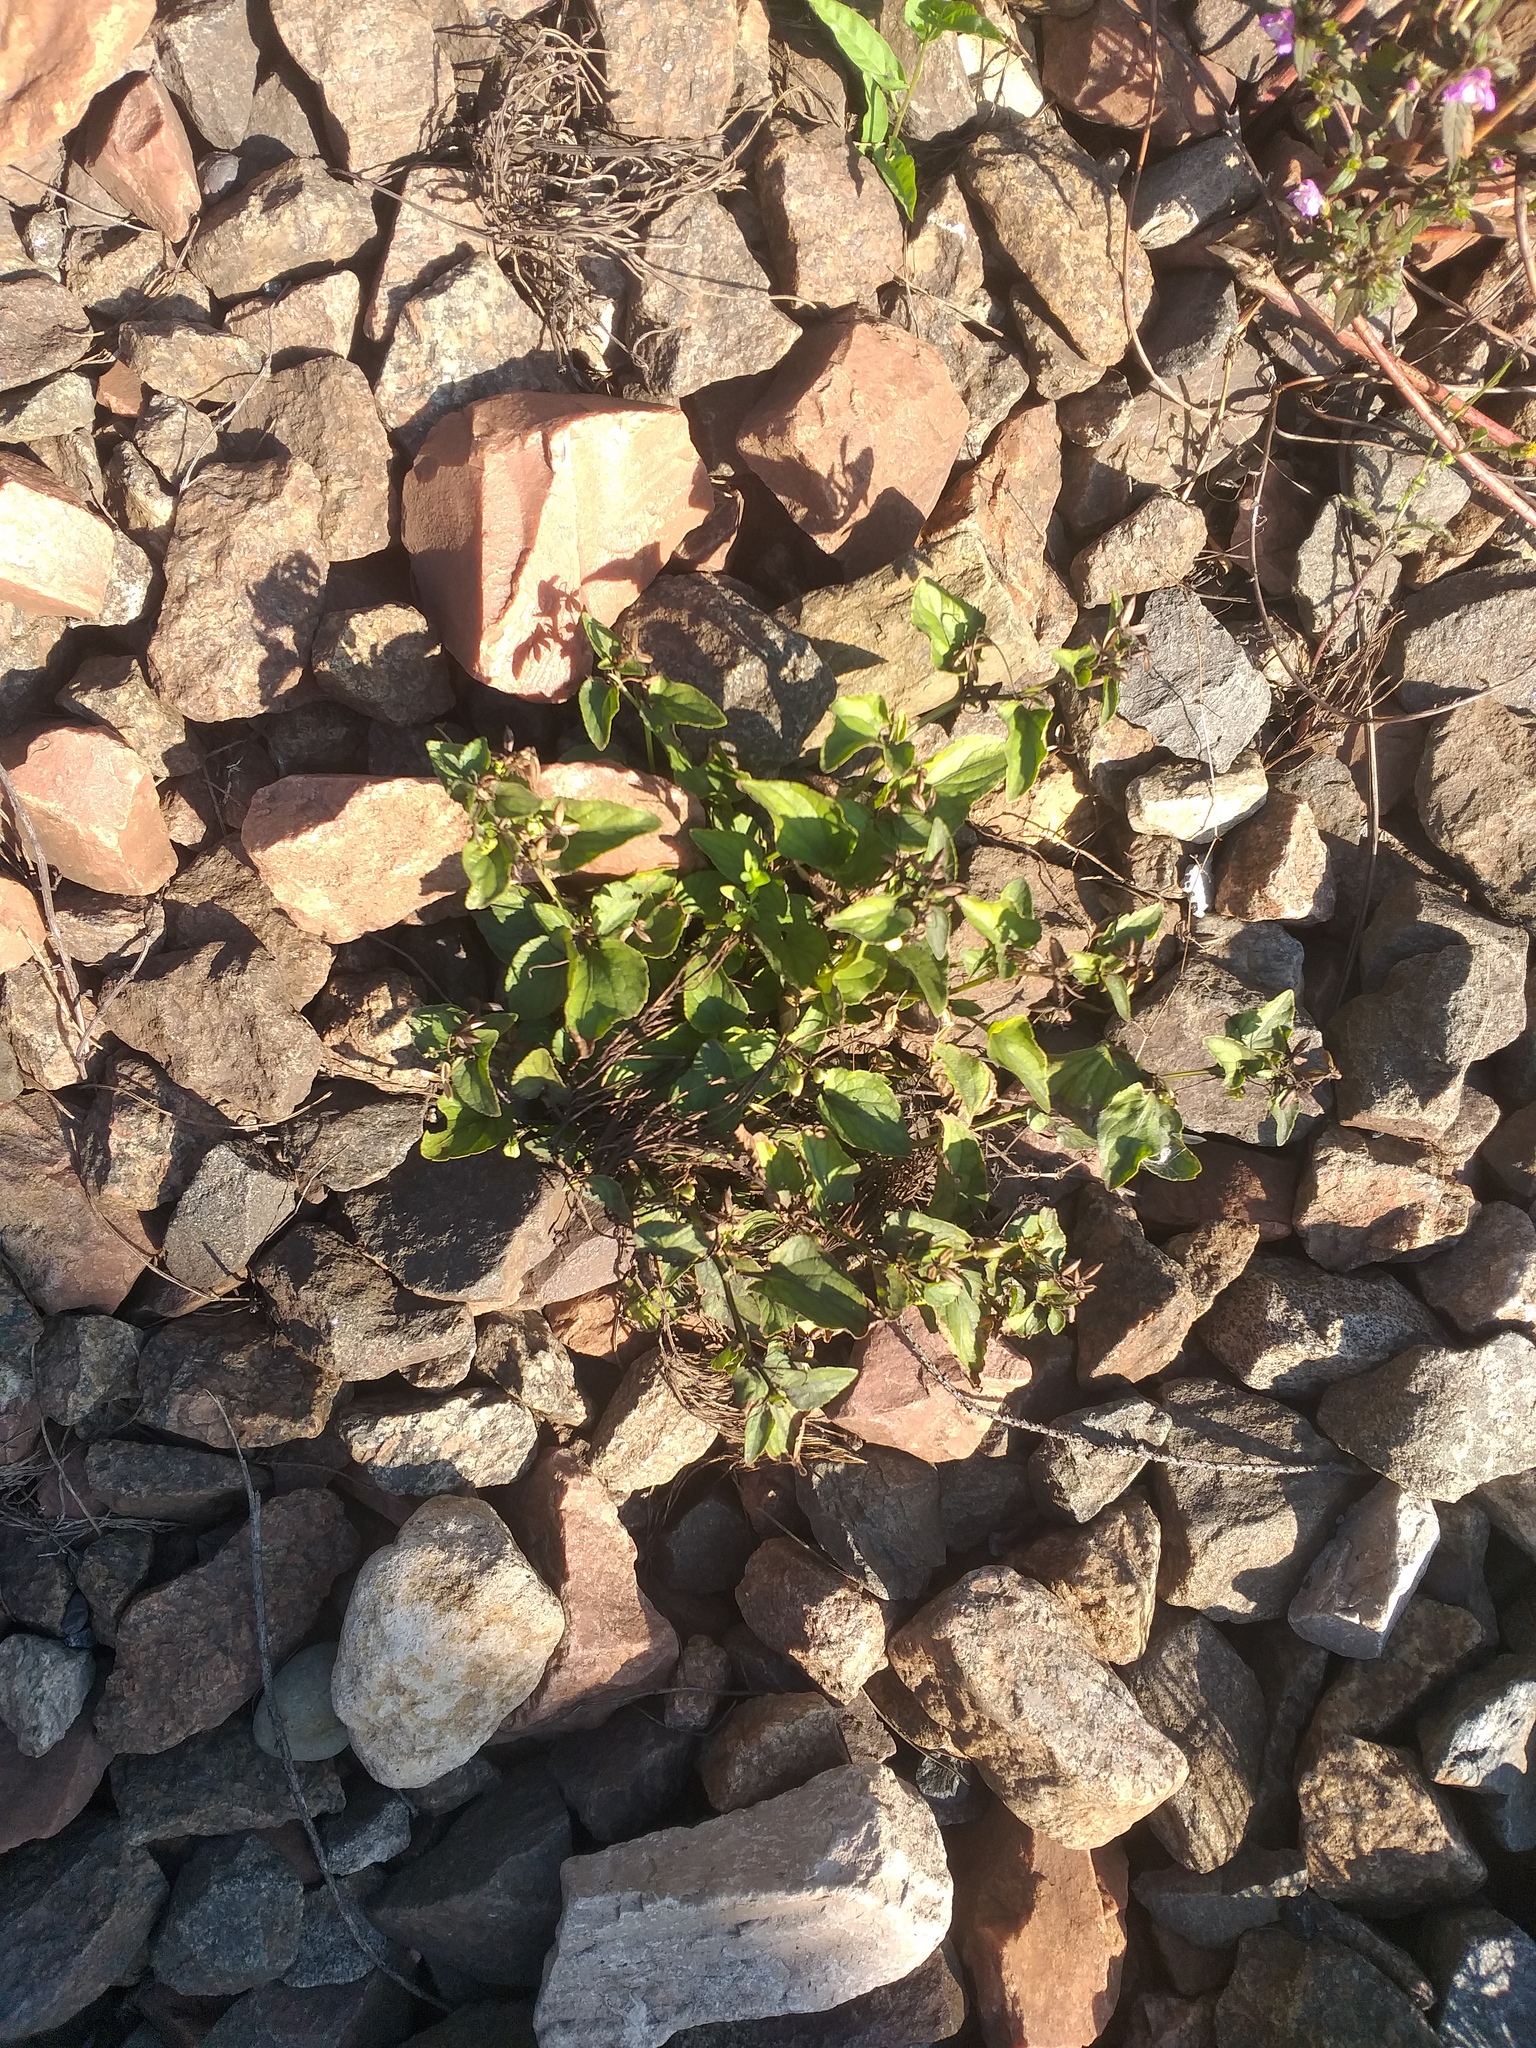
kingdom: Plantae
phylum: Tracheophyta
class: Magnoliopsida
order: Malpighiales
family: Violaceae
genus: Viola
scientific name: Viola canina
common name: Heath dog-violet
